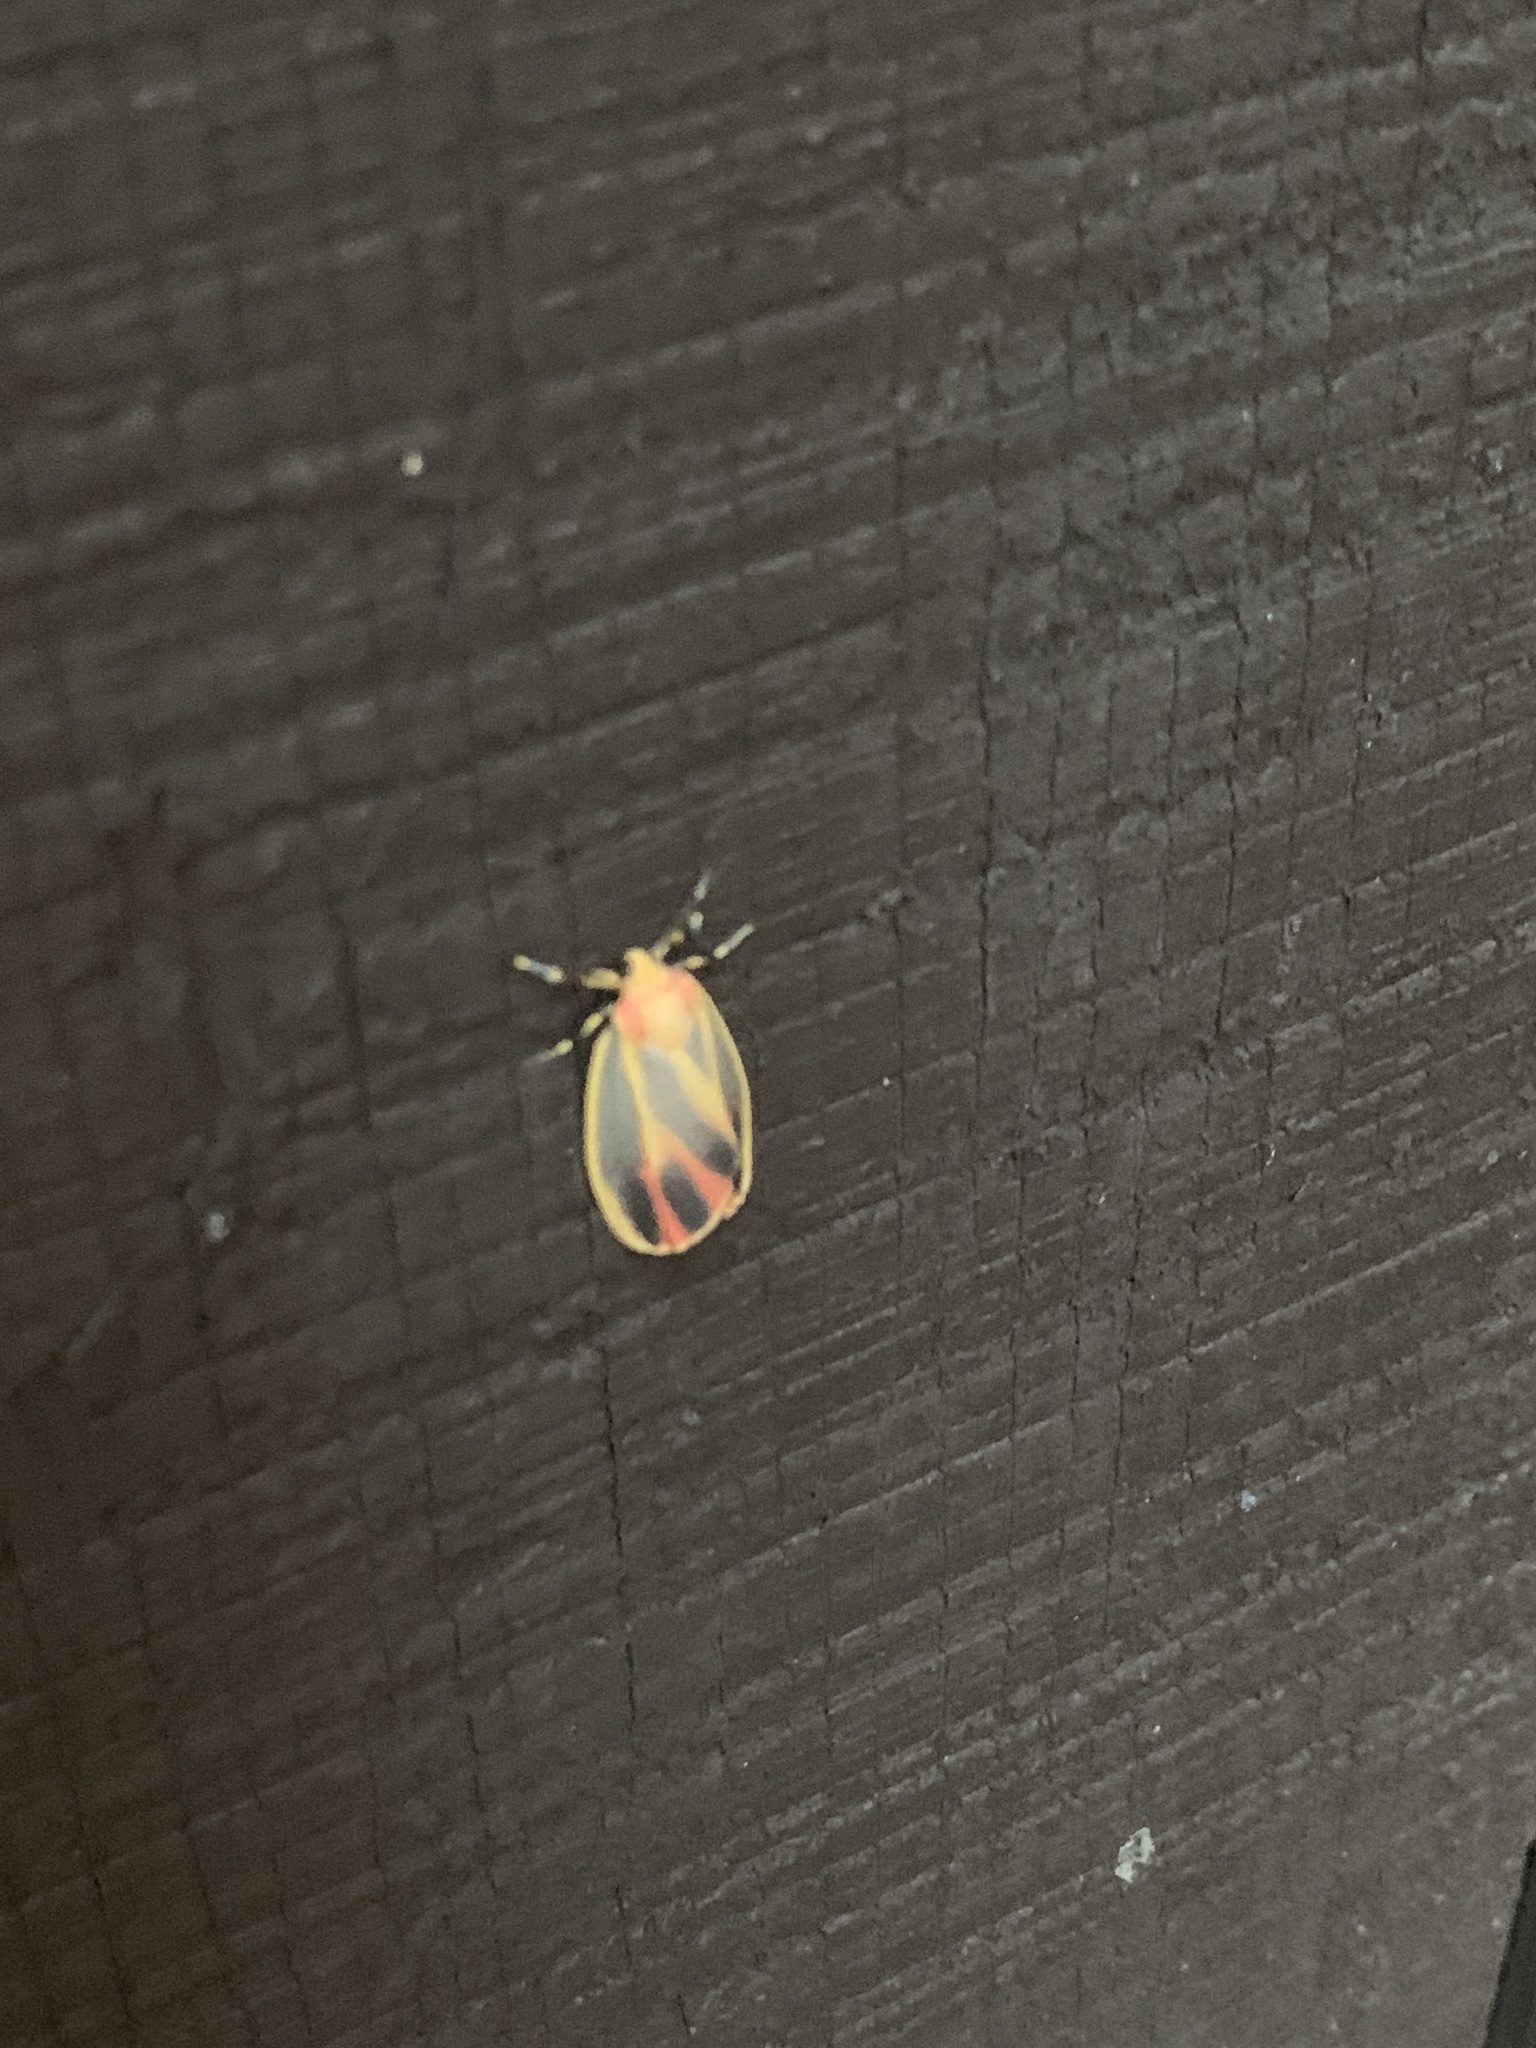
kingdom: Animalia
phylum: Arthropoda
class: Insecta
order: Lepidoptera
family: Erebidae
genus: Hypoprepia
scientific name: Hypoprepia fucosa
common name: Painted lichen moth
